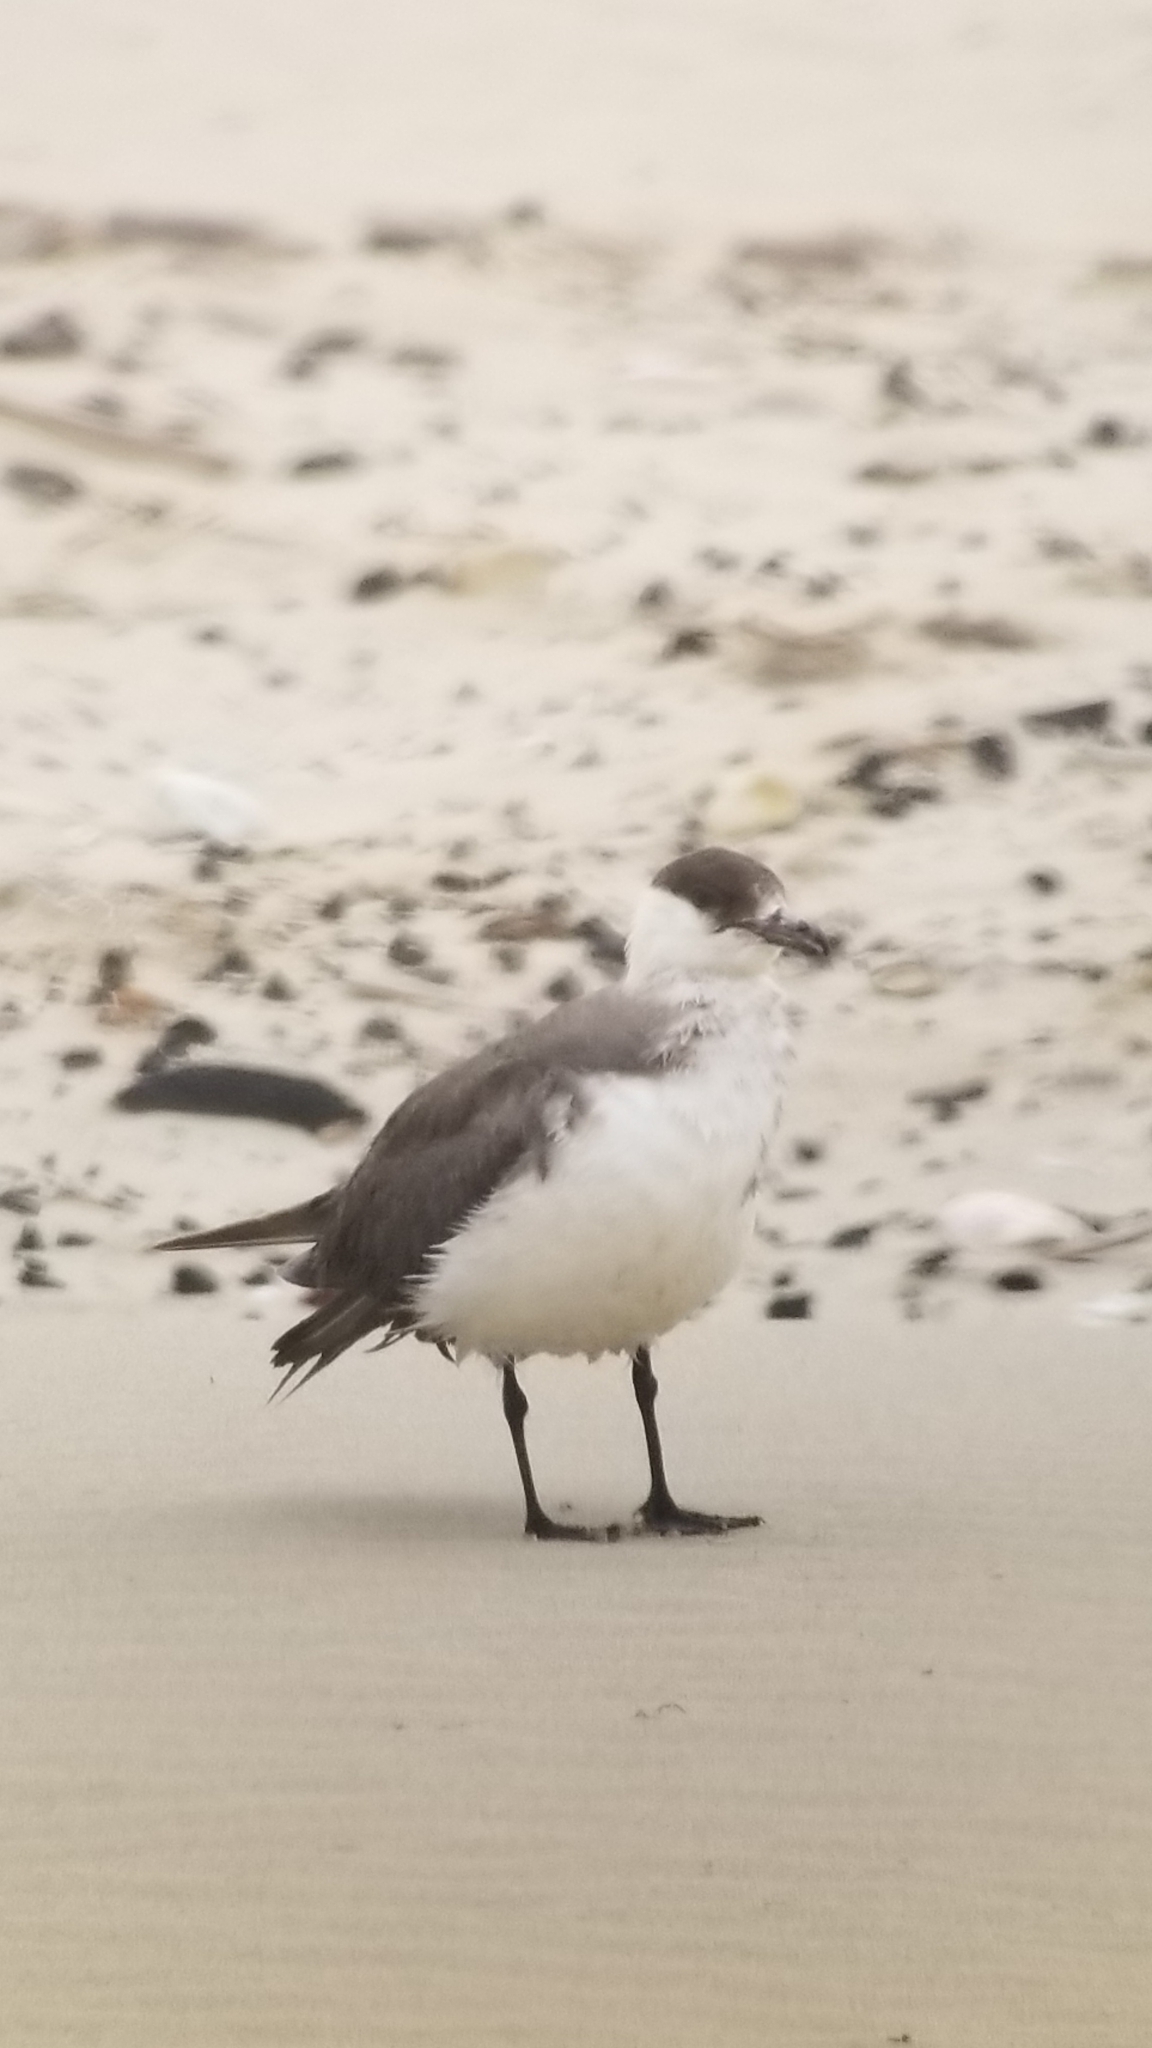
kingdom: Animalia
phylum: Chordata
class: Aves
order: Charadriiformes
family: Stercorariidae
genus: Stercorarius
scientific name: Stercorarius parasiticus
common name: Parasitic jaeger
